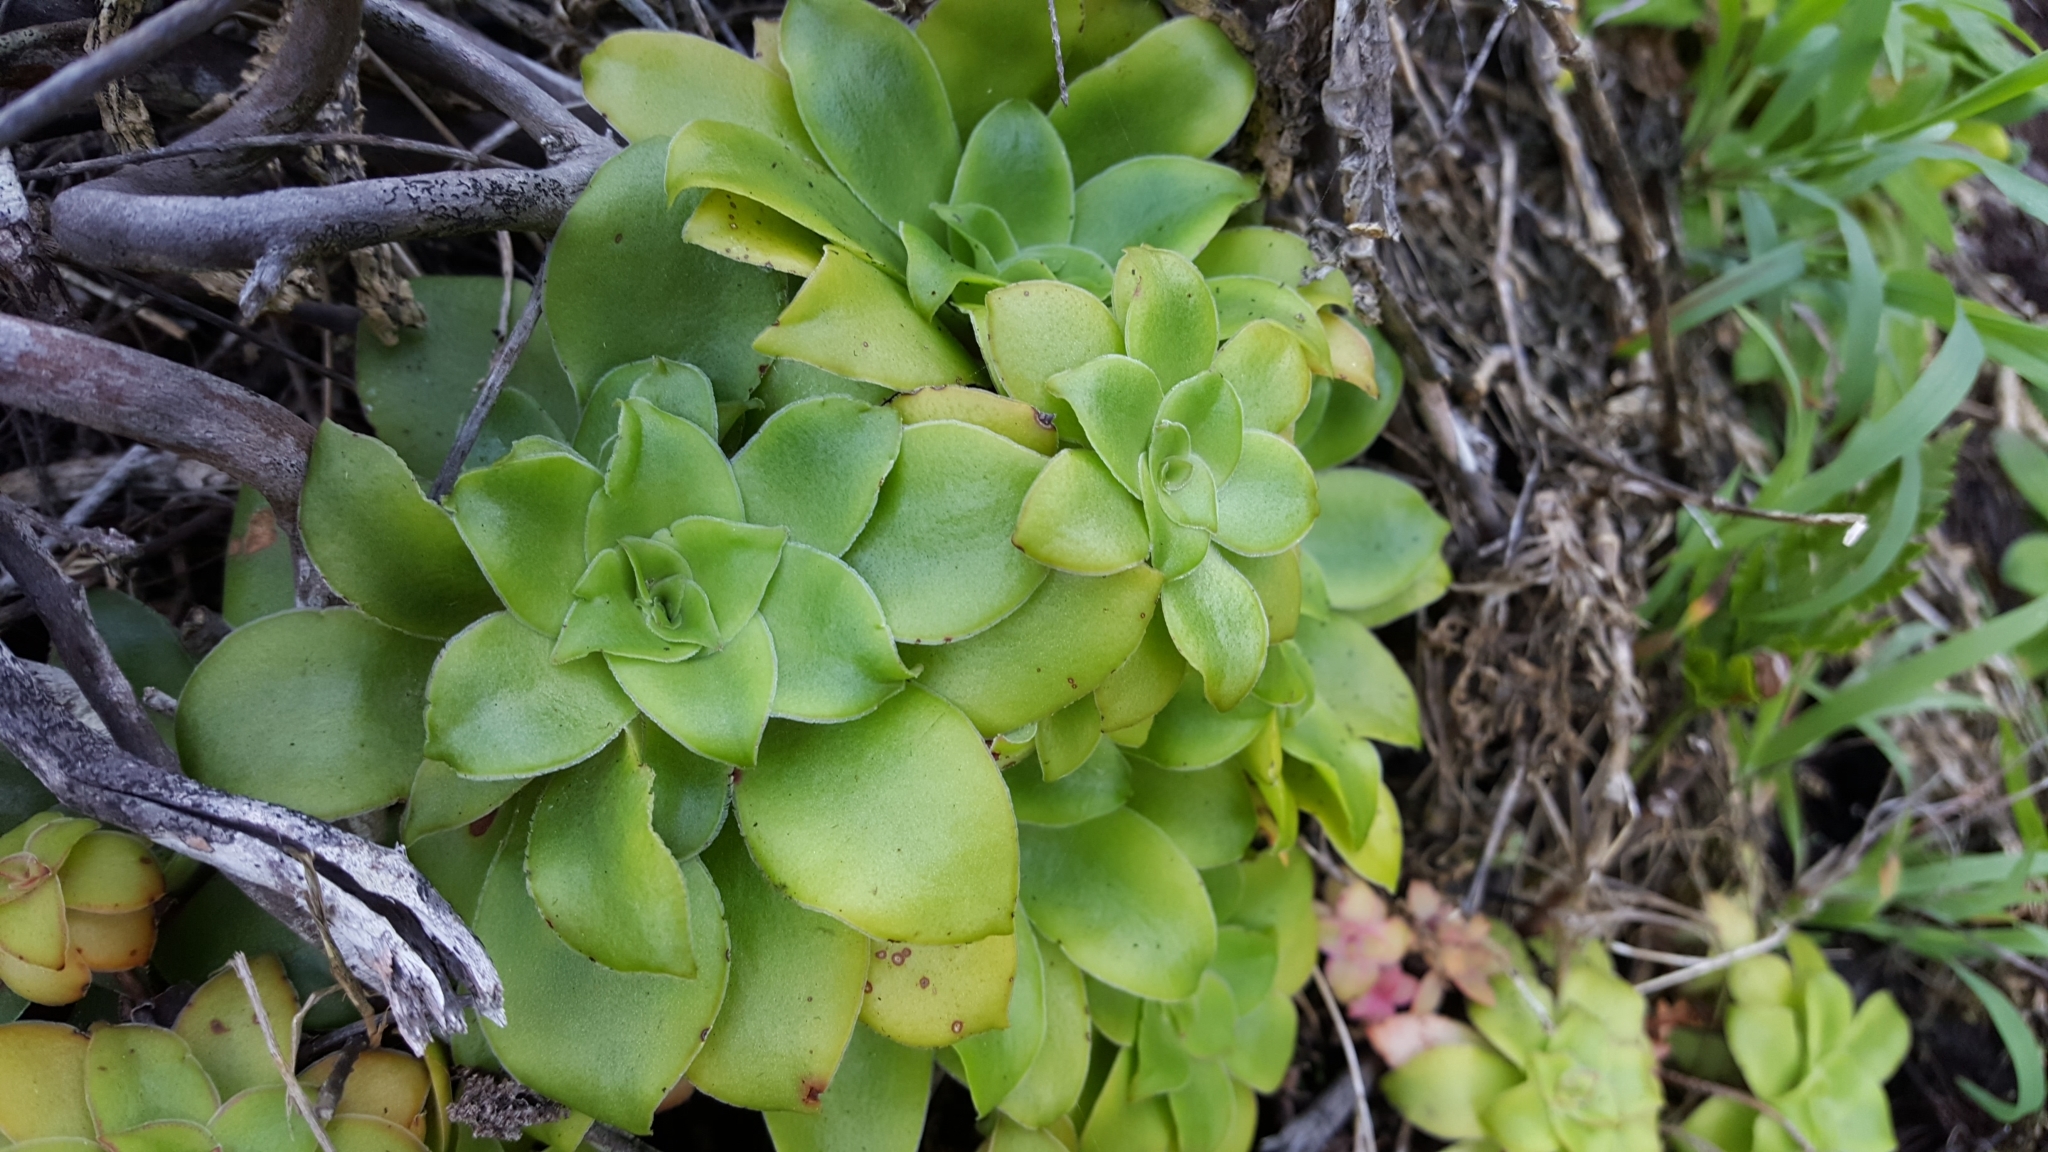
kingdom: Plantae
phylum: Tracheophyta
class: Magnoliopsida
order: Saxifragales
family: Crassulaceae
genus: Crassula
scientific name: Crassula orbicularis
